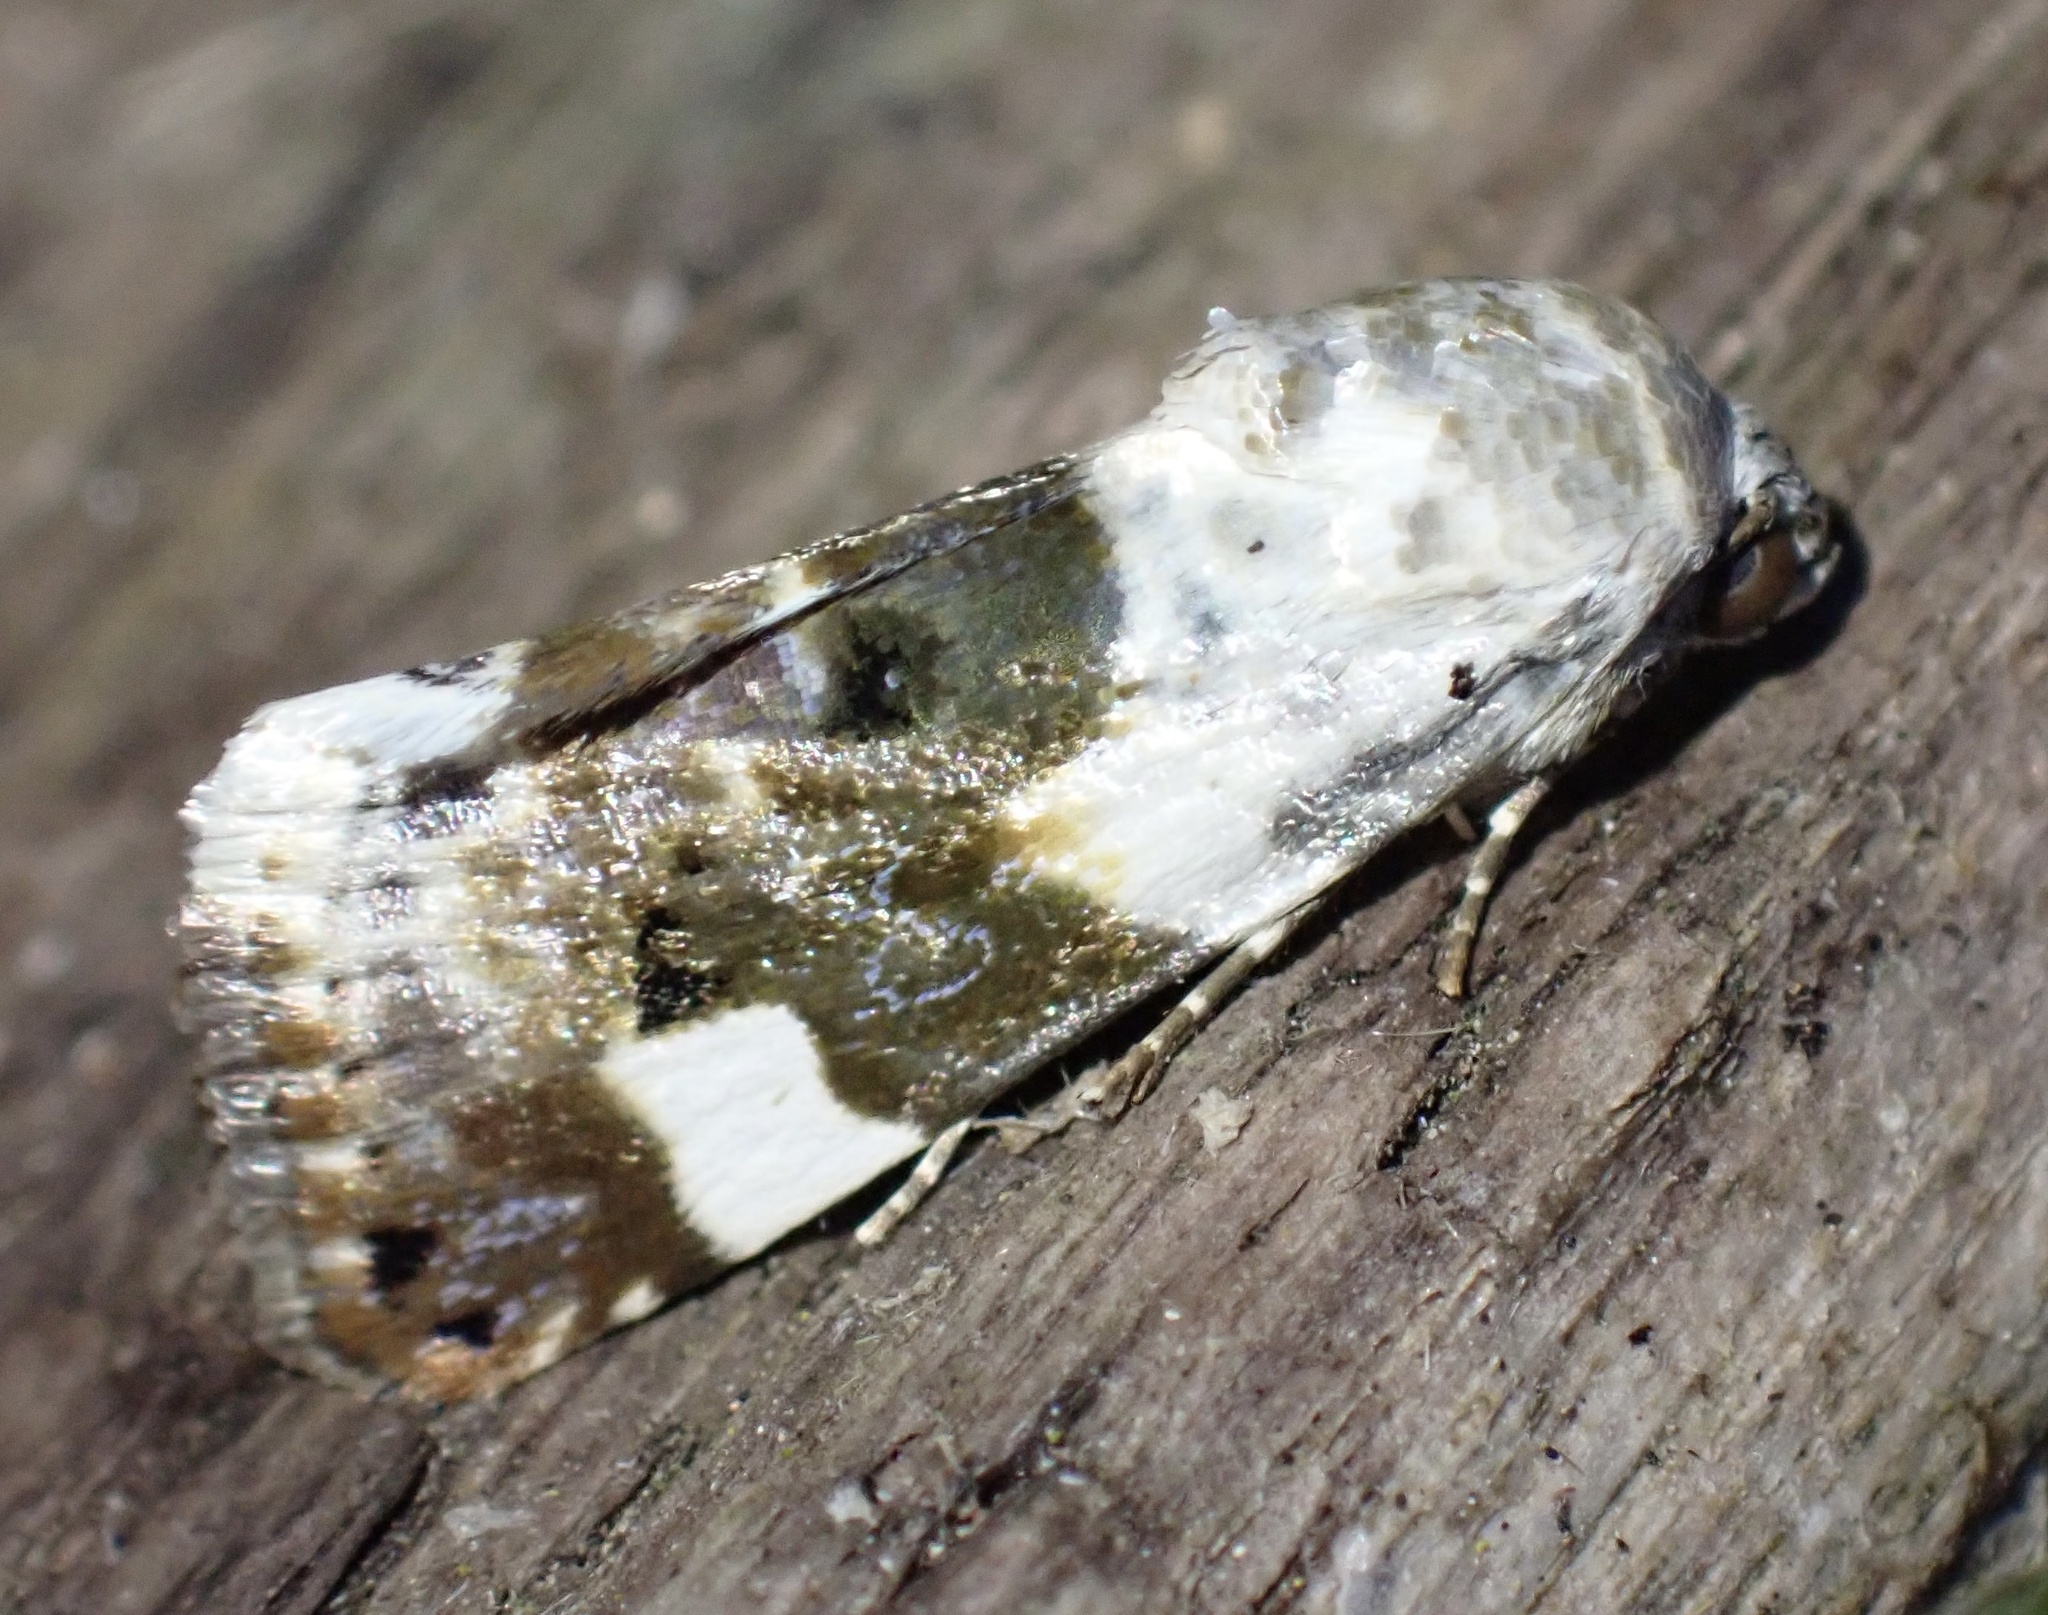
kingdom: Animalia
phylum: Arthropoda
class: Insecta
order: Lepidoptera
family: Noctuidae
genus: Acontia
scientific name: Acontia lucida
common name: Pale shoulder
